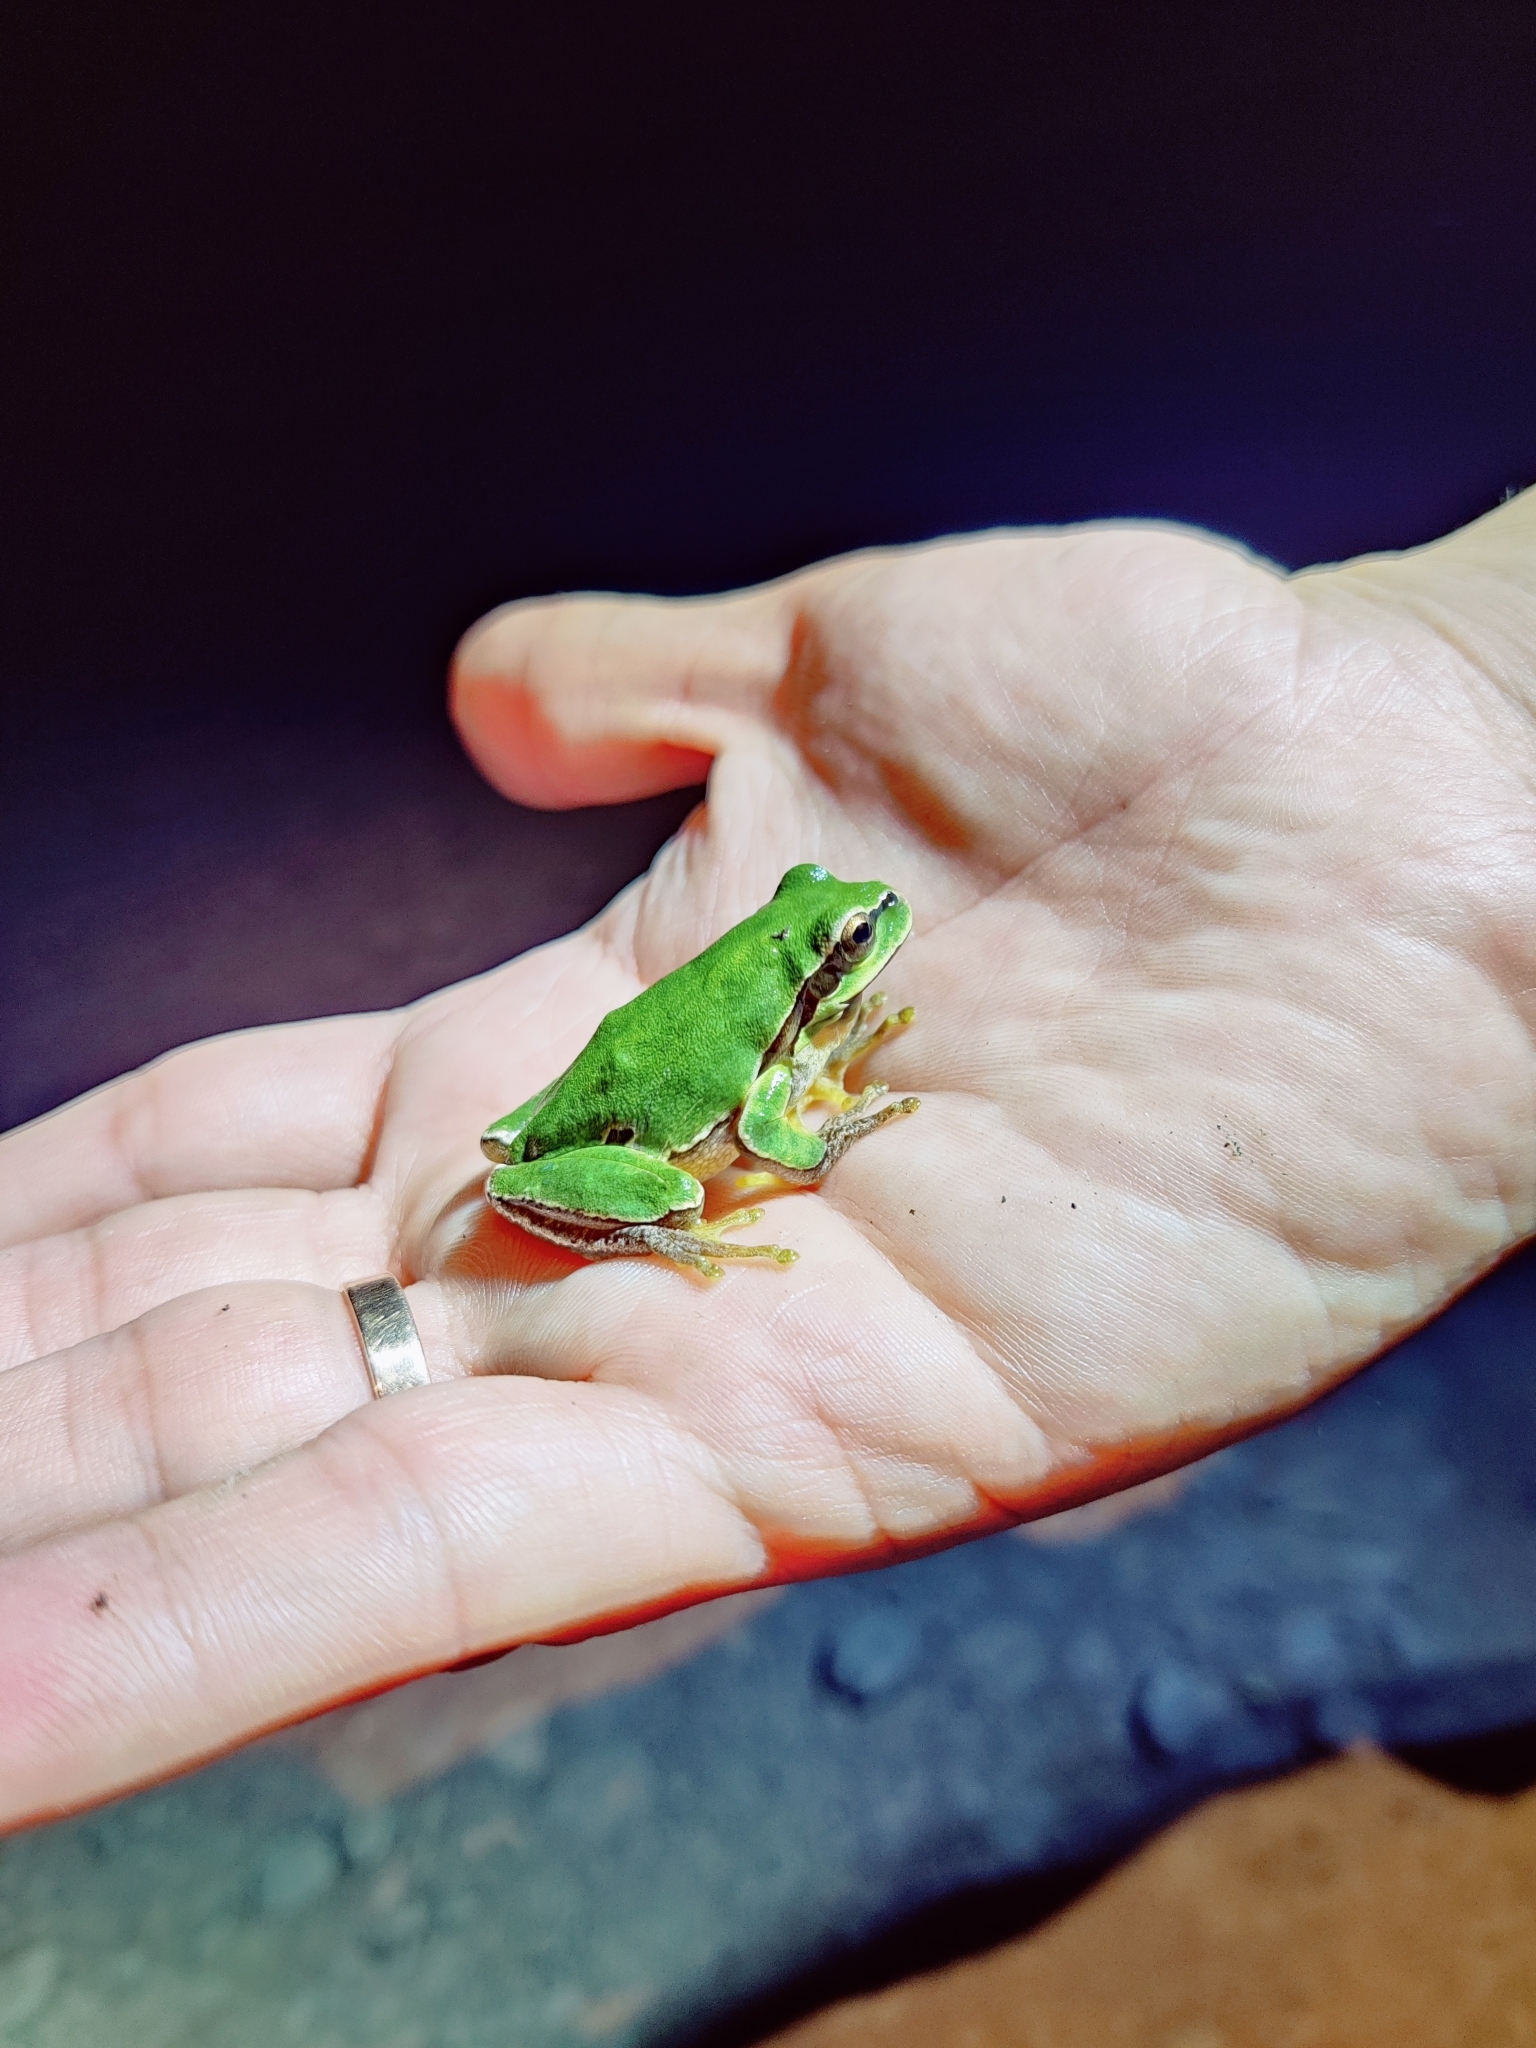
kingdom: Animalia
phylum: Chordata
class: Amphibia
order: Anura
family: Hylidae
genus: Hyla
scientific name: Hyla orientalis
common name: Caucasian treefrog
